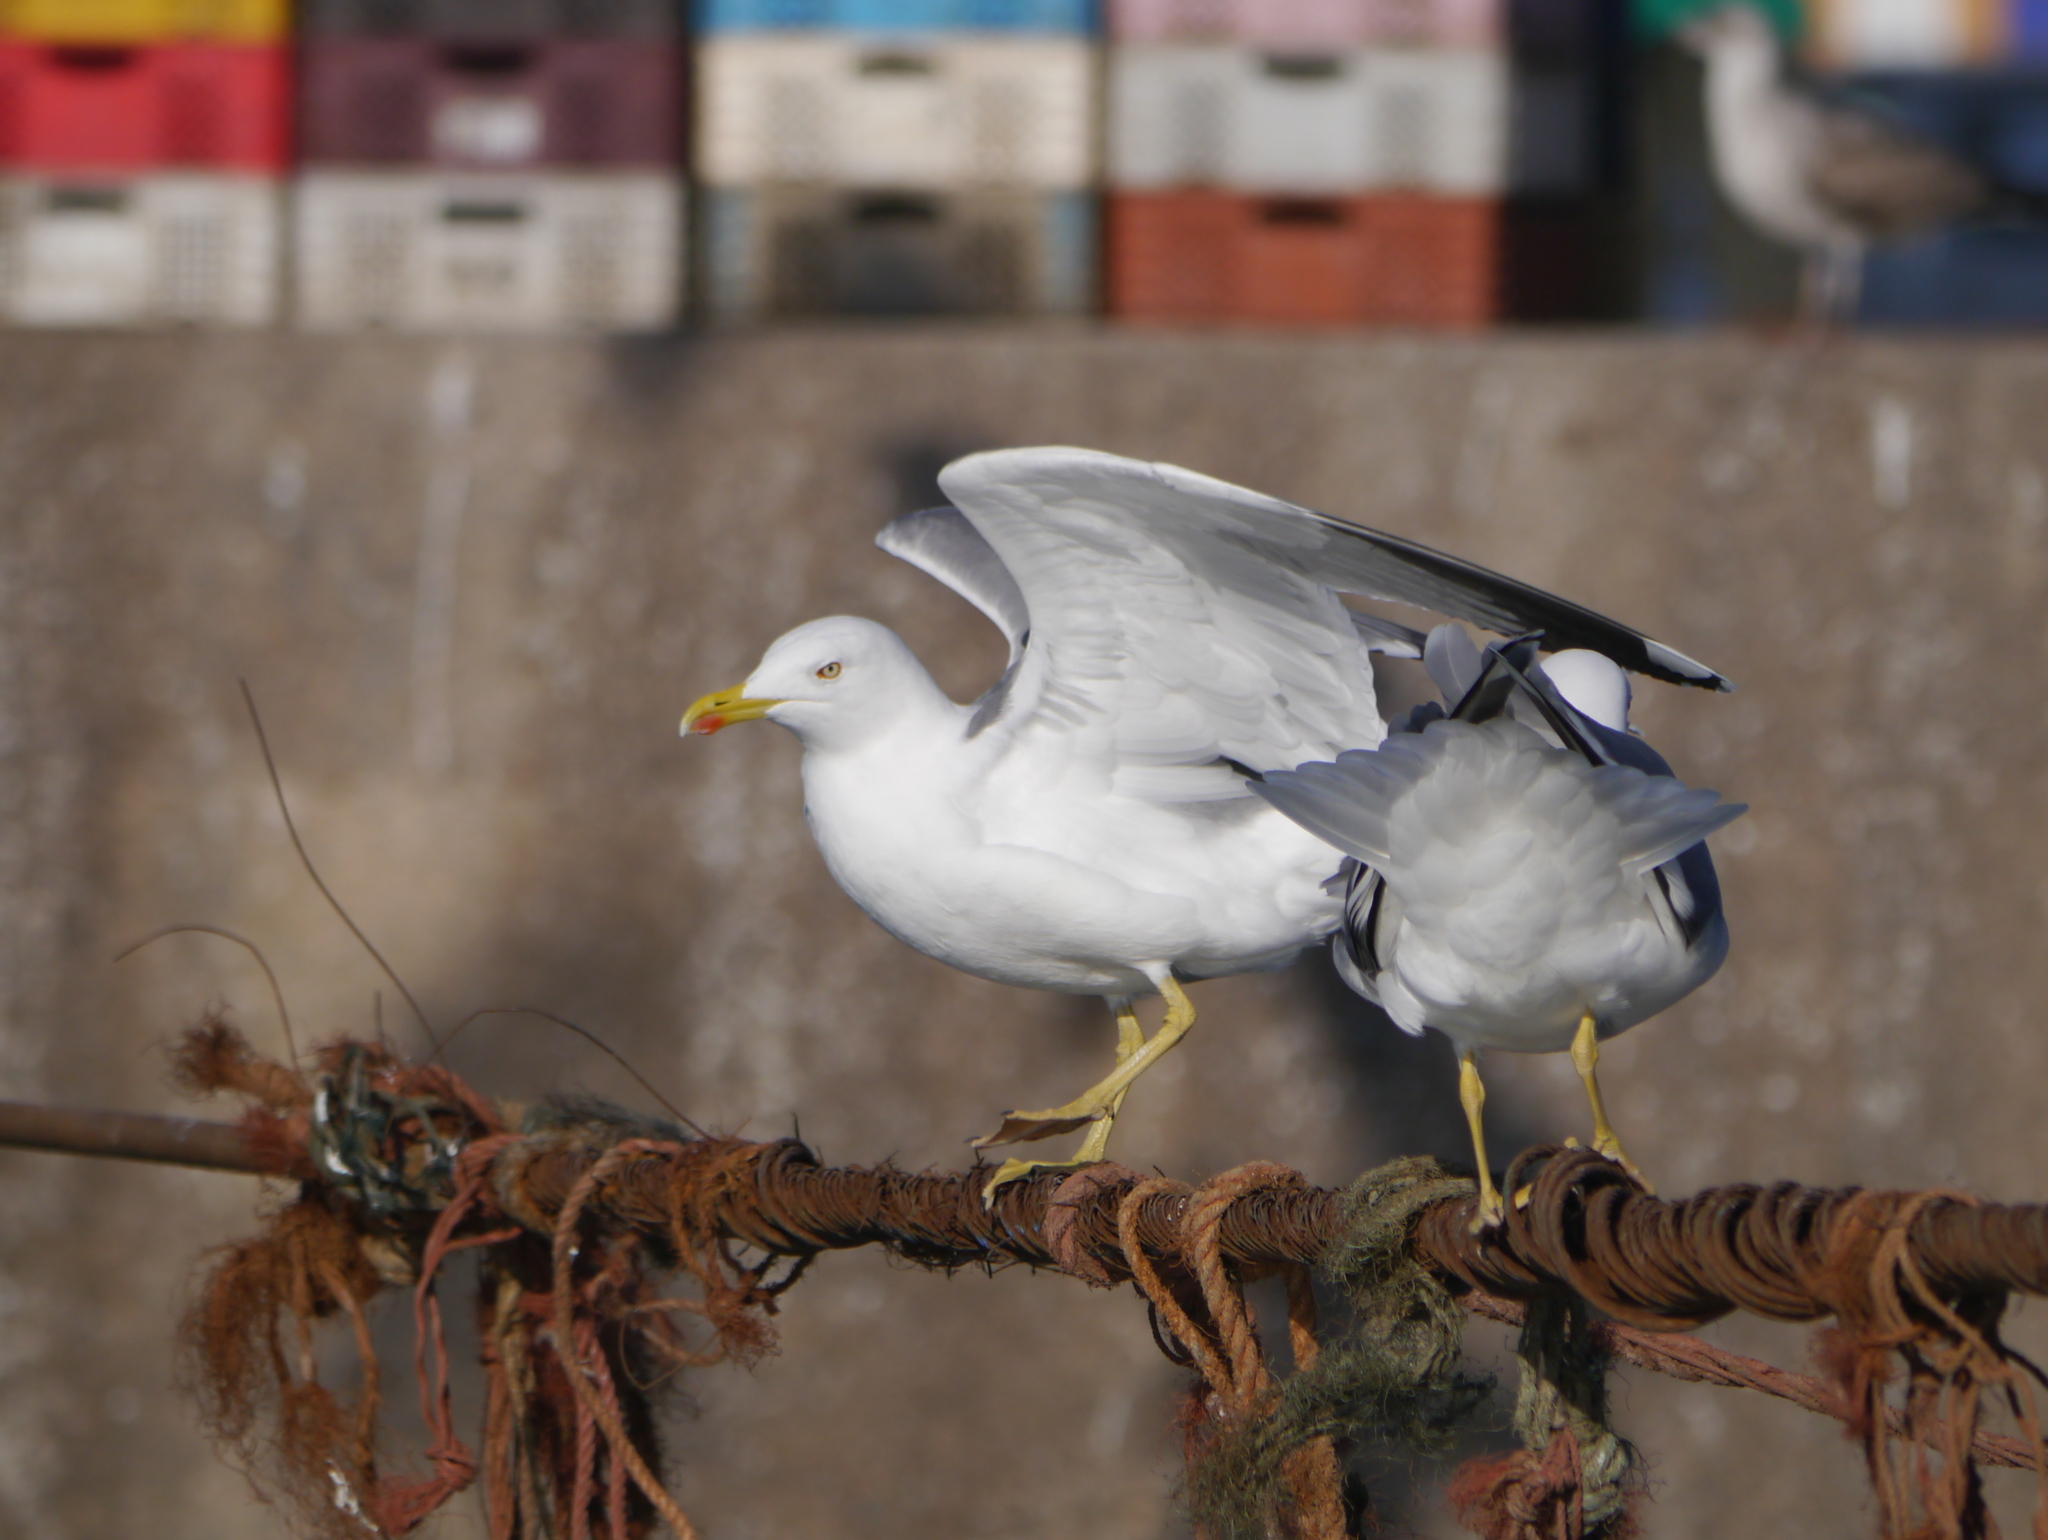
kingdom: Animalia
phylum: Chordata
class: Aves
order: Charadriiformes
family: Laridae
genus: Larus
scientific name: Larus michahellis
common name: Yellow-legged gull
